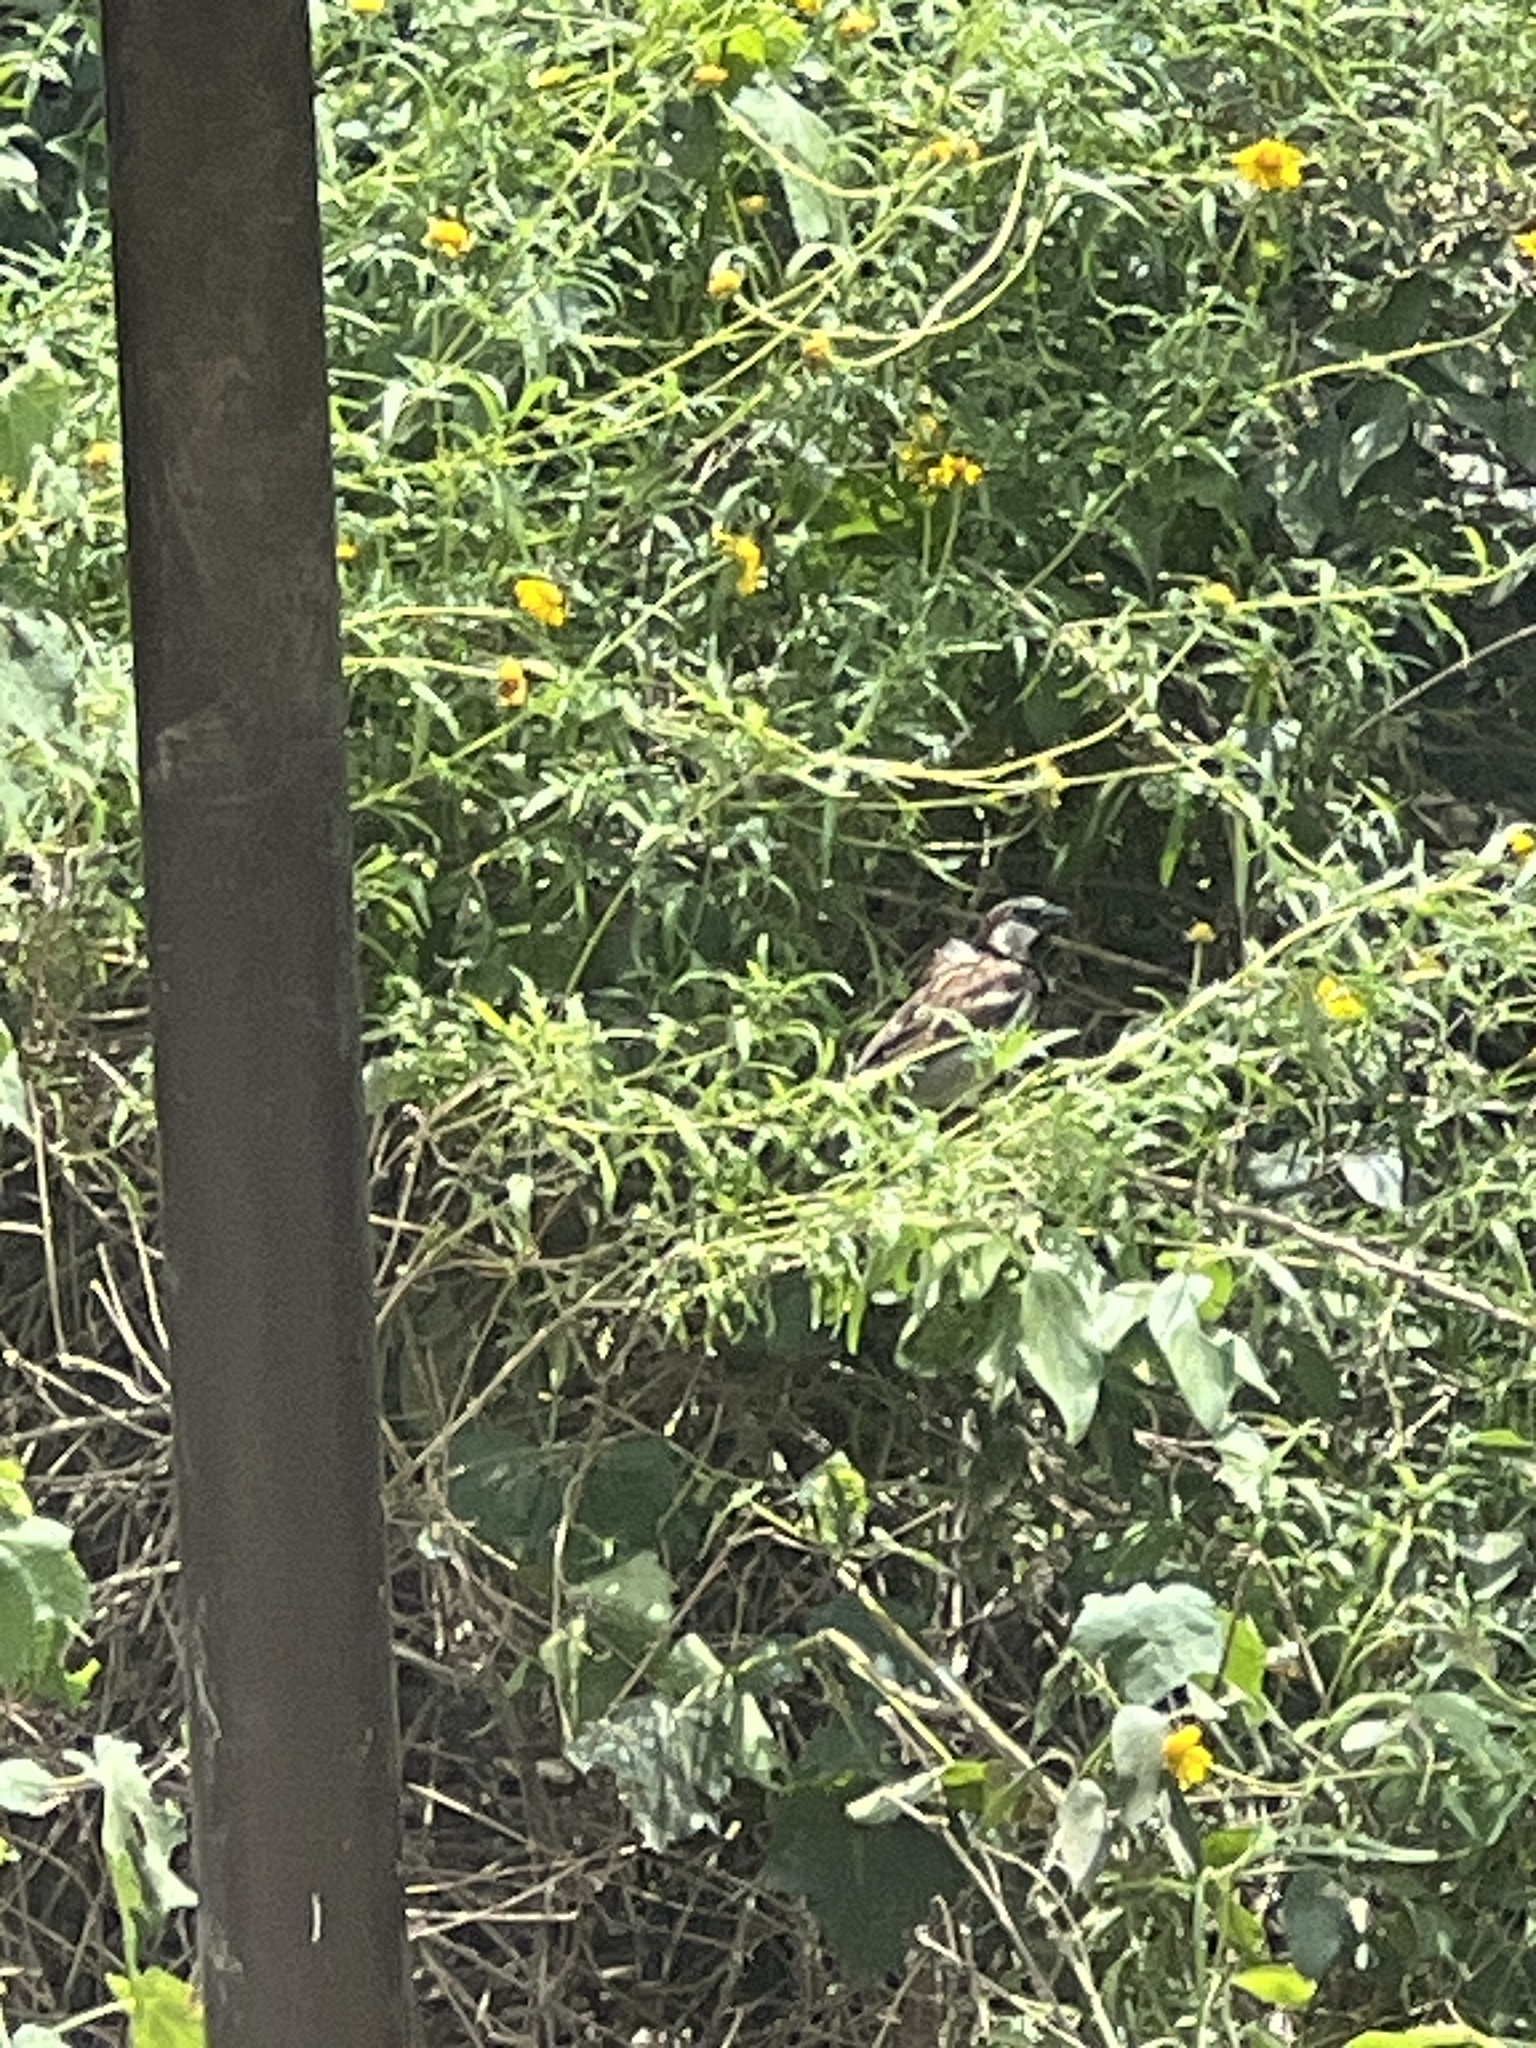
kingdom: Animalia
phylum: Chordata
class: Aves
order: Passeriformes
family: Passeridae
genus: Passer
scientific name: Passer domesticus
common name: House sparrow
